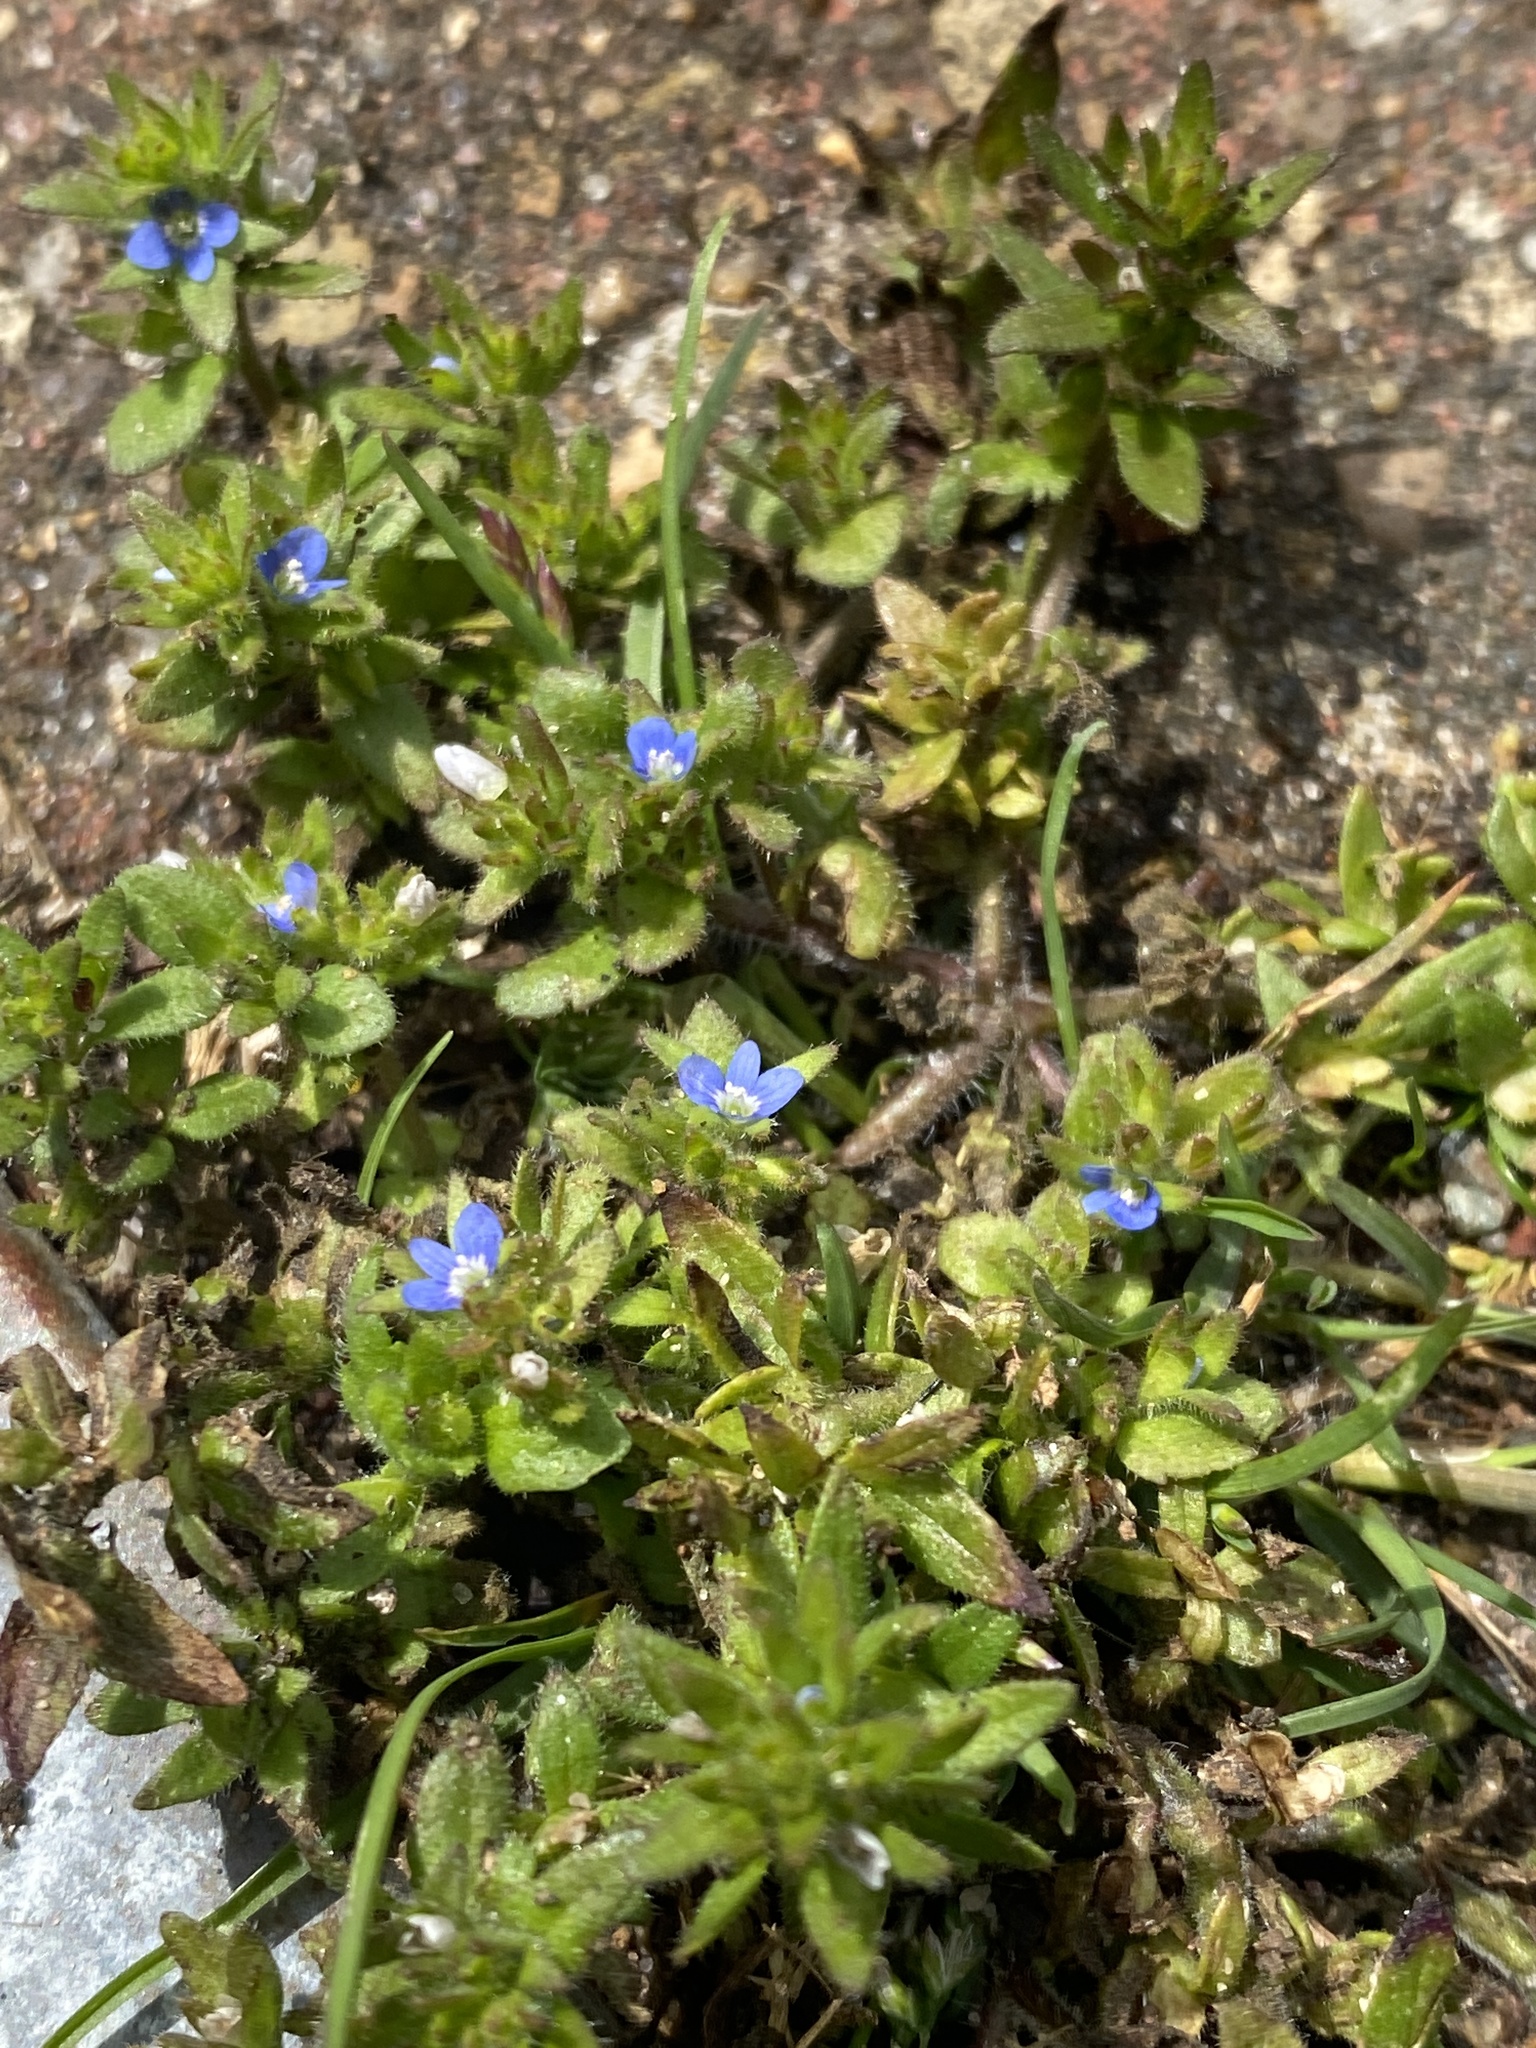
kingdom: Plantae
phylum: Tracheophyta
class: Magnoliopsida
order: Lamiales
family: Plantaginaceae
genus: Veronica
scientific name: Veronica arvensis
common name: Corn speedwell
